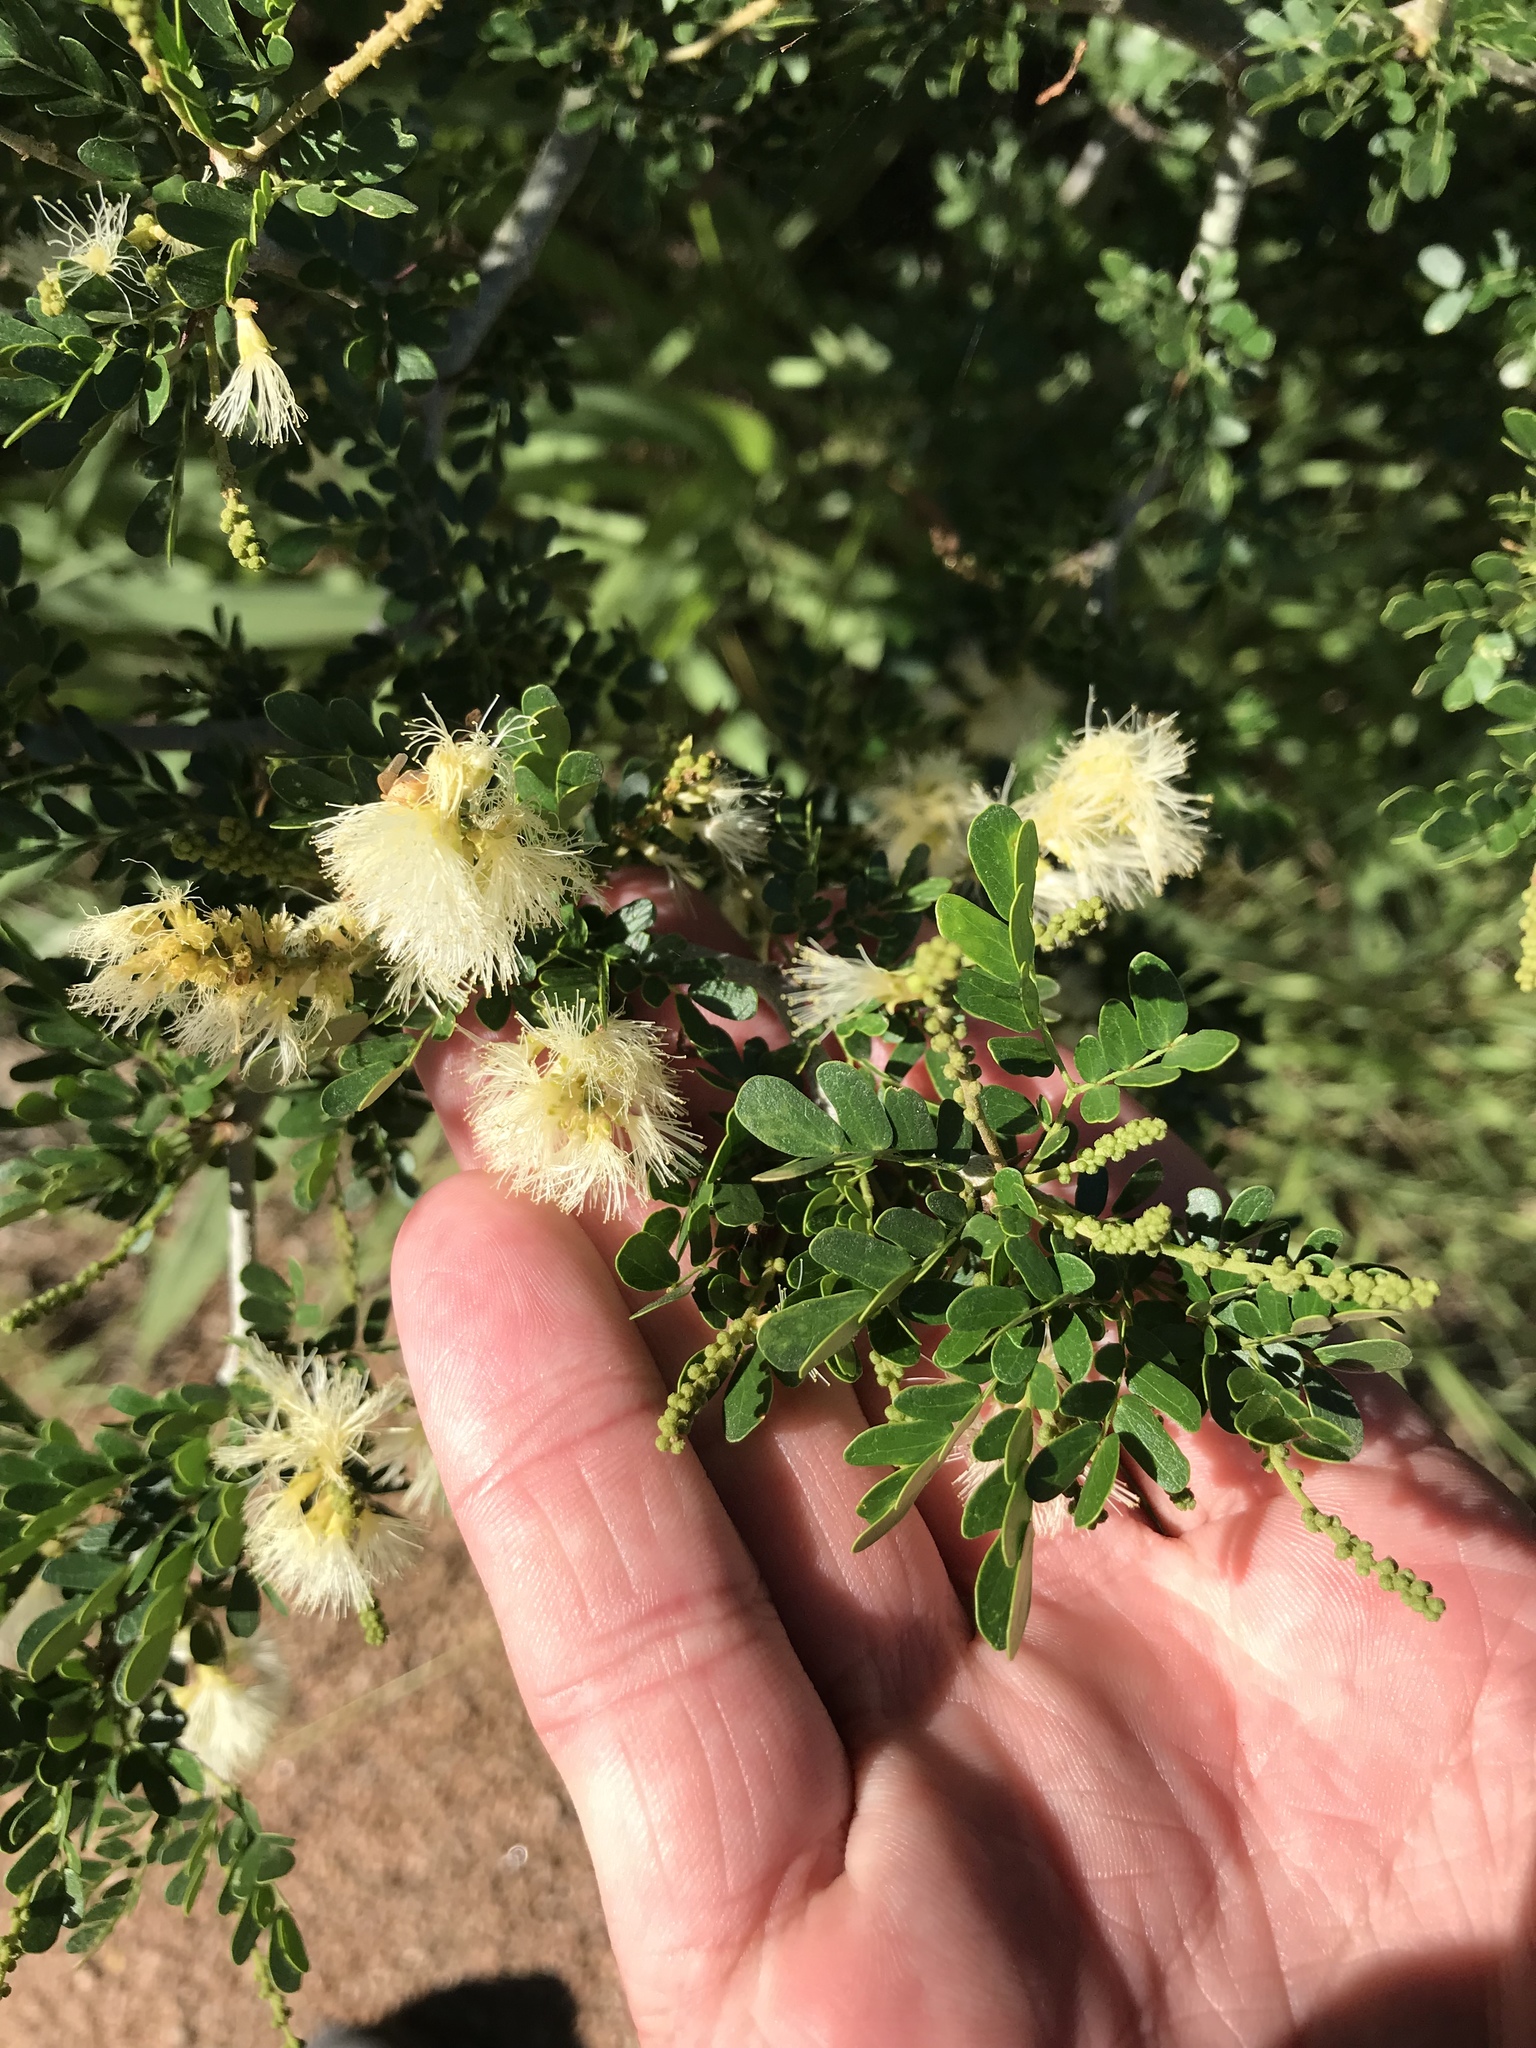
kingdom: Plantae
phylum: Tracheophyta
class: Magnoliopsida
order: Fabales
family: Fabaceae
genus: Ebenopsis
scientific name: Ebenopsis ebano
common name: Ebony blackbead
